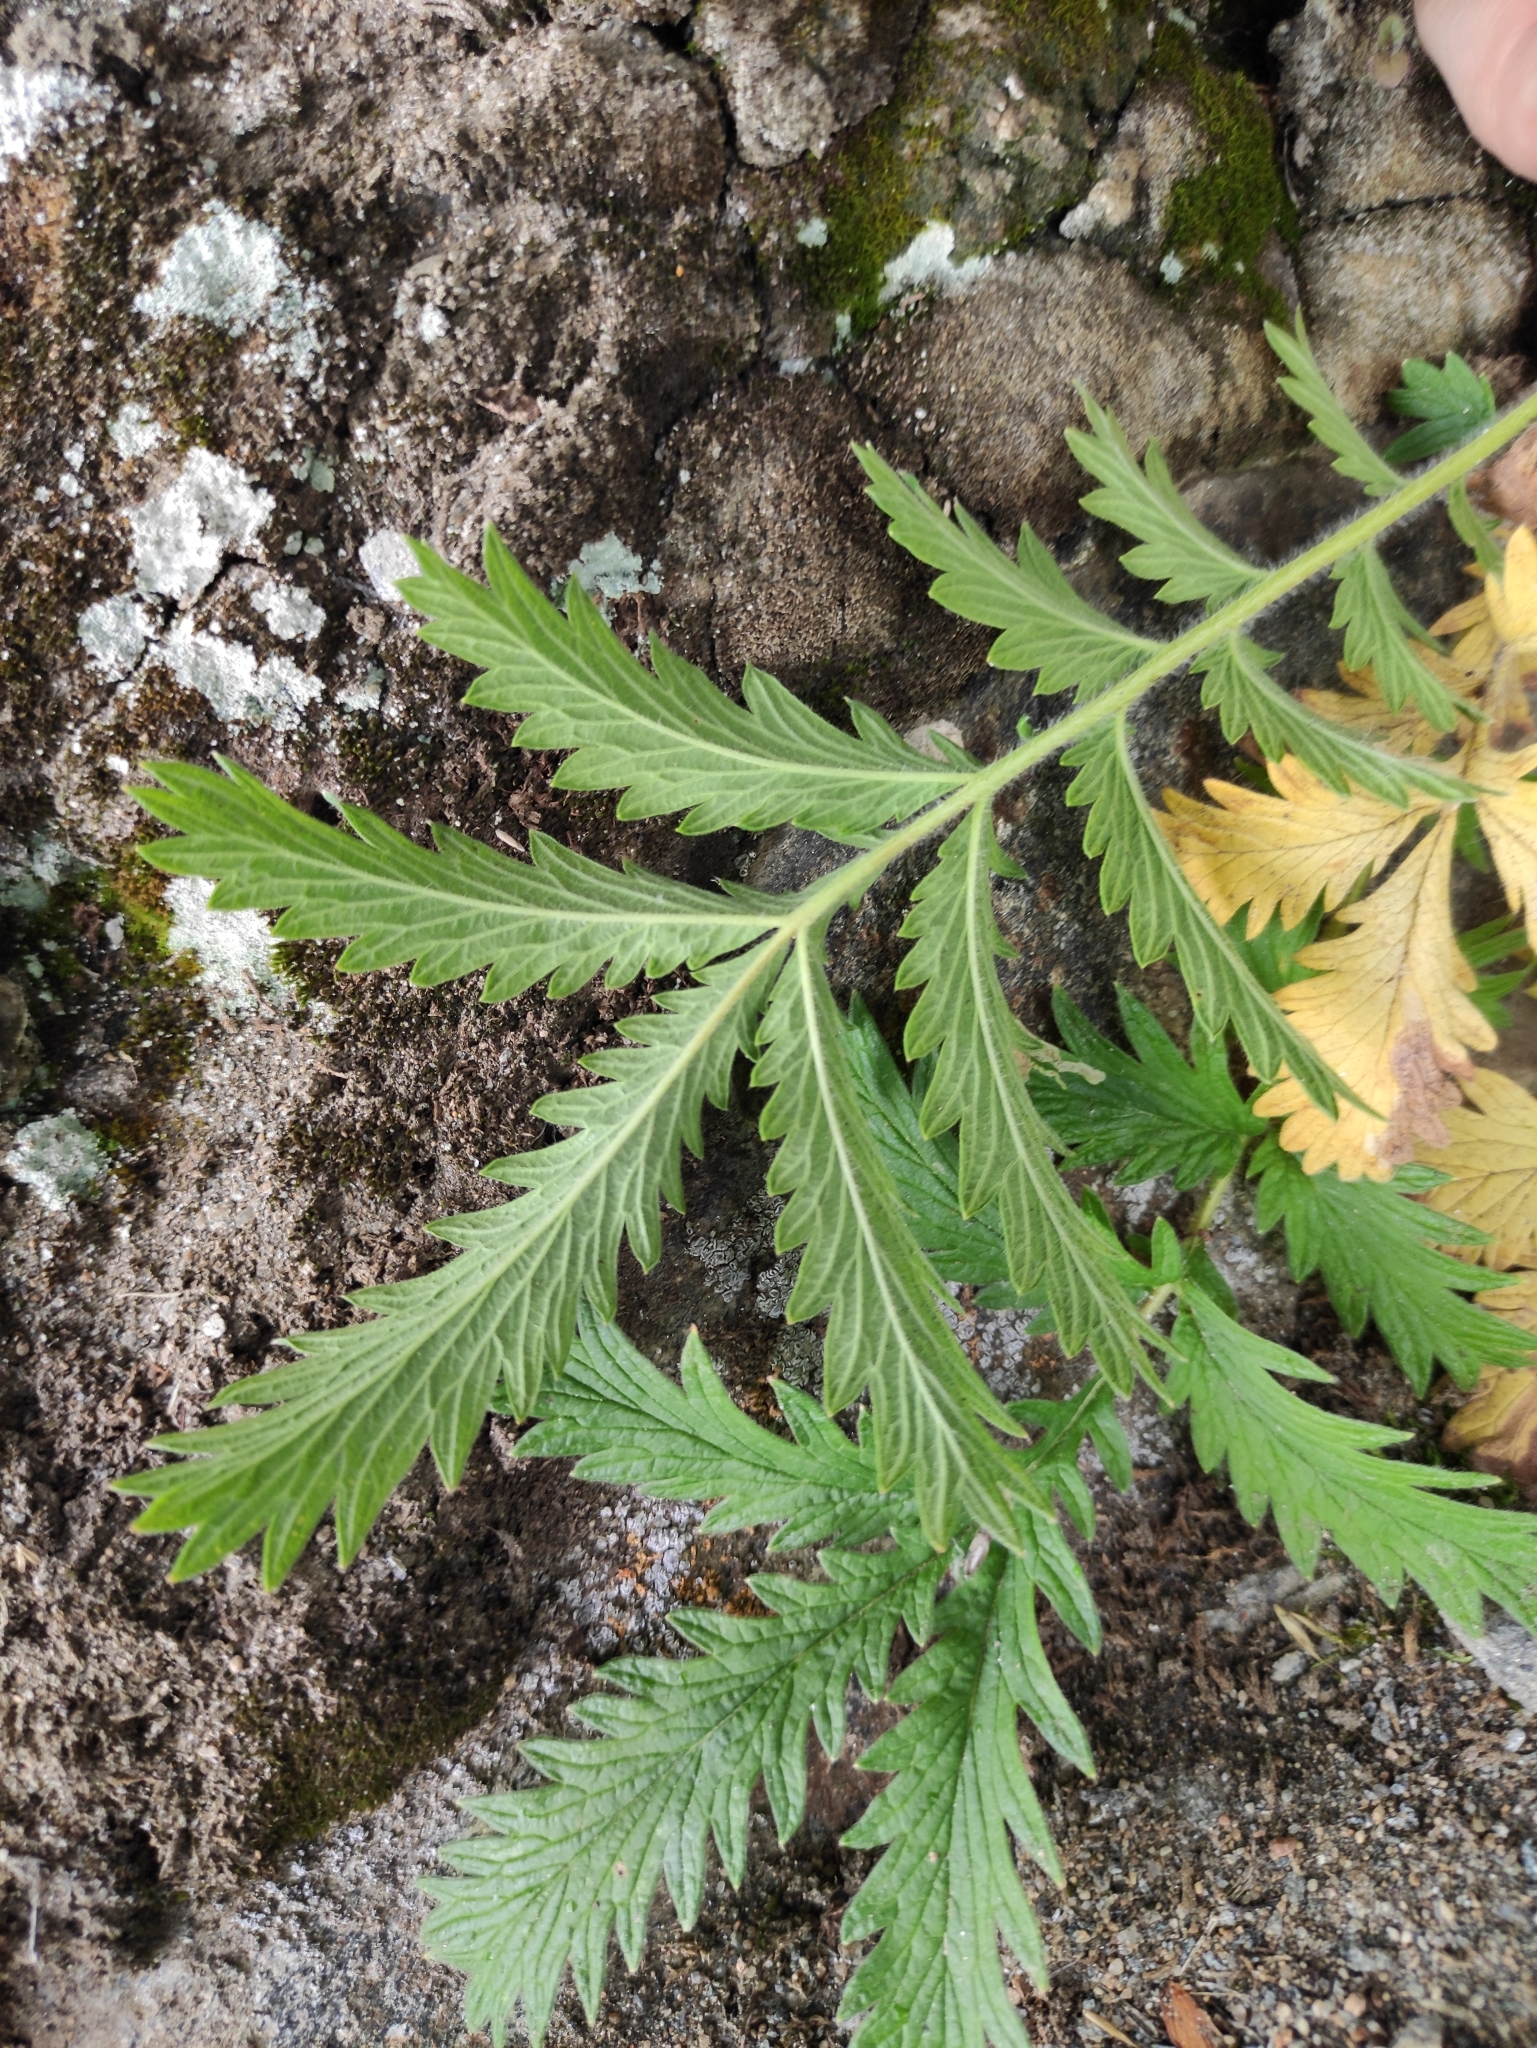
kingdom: Plantae
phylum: Tracheophyta
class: Magnoliopsida
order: Rosales
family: Rosaceae
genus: Potentilla
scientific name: Potentilla tanacetifolia
